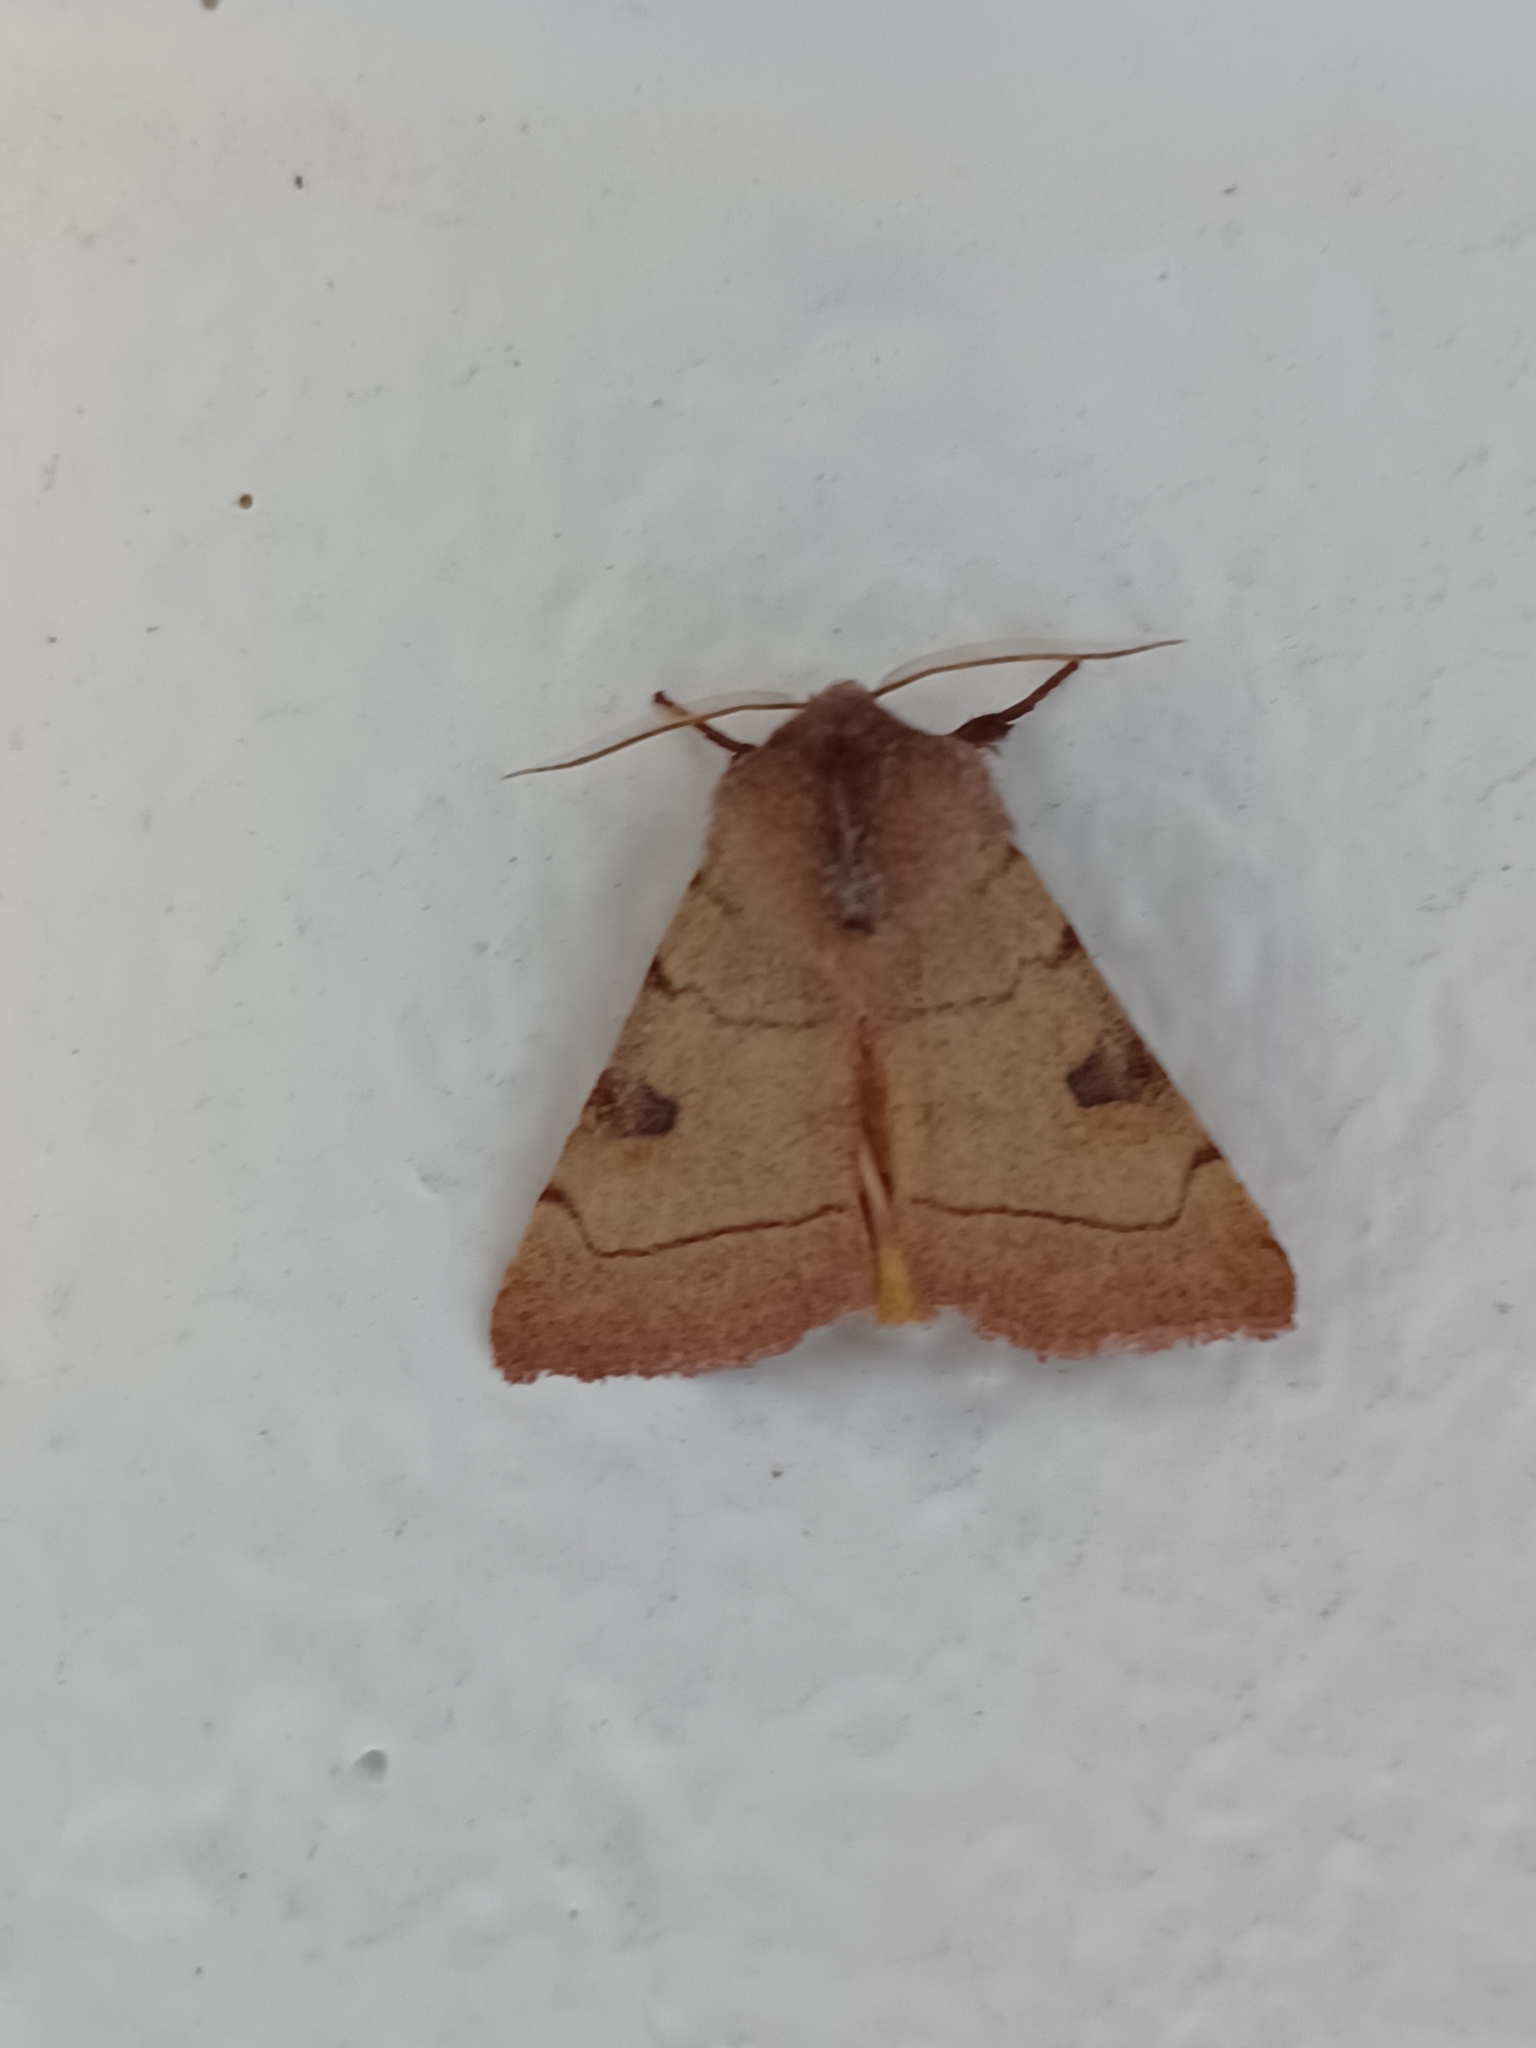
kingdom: Animalia
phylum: Arthropoda
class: Insecta
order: Lepidoptera
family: Noctuidae
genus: Choephora
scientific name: Choephora fungorum
